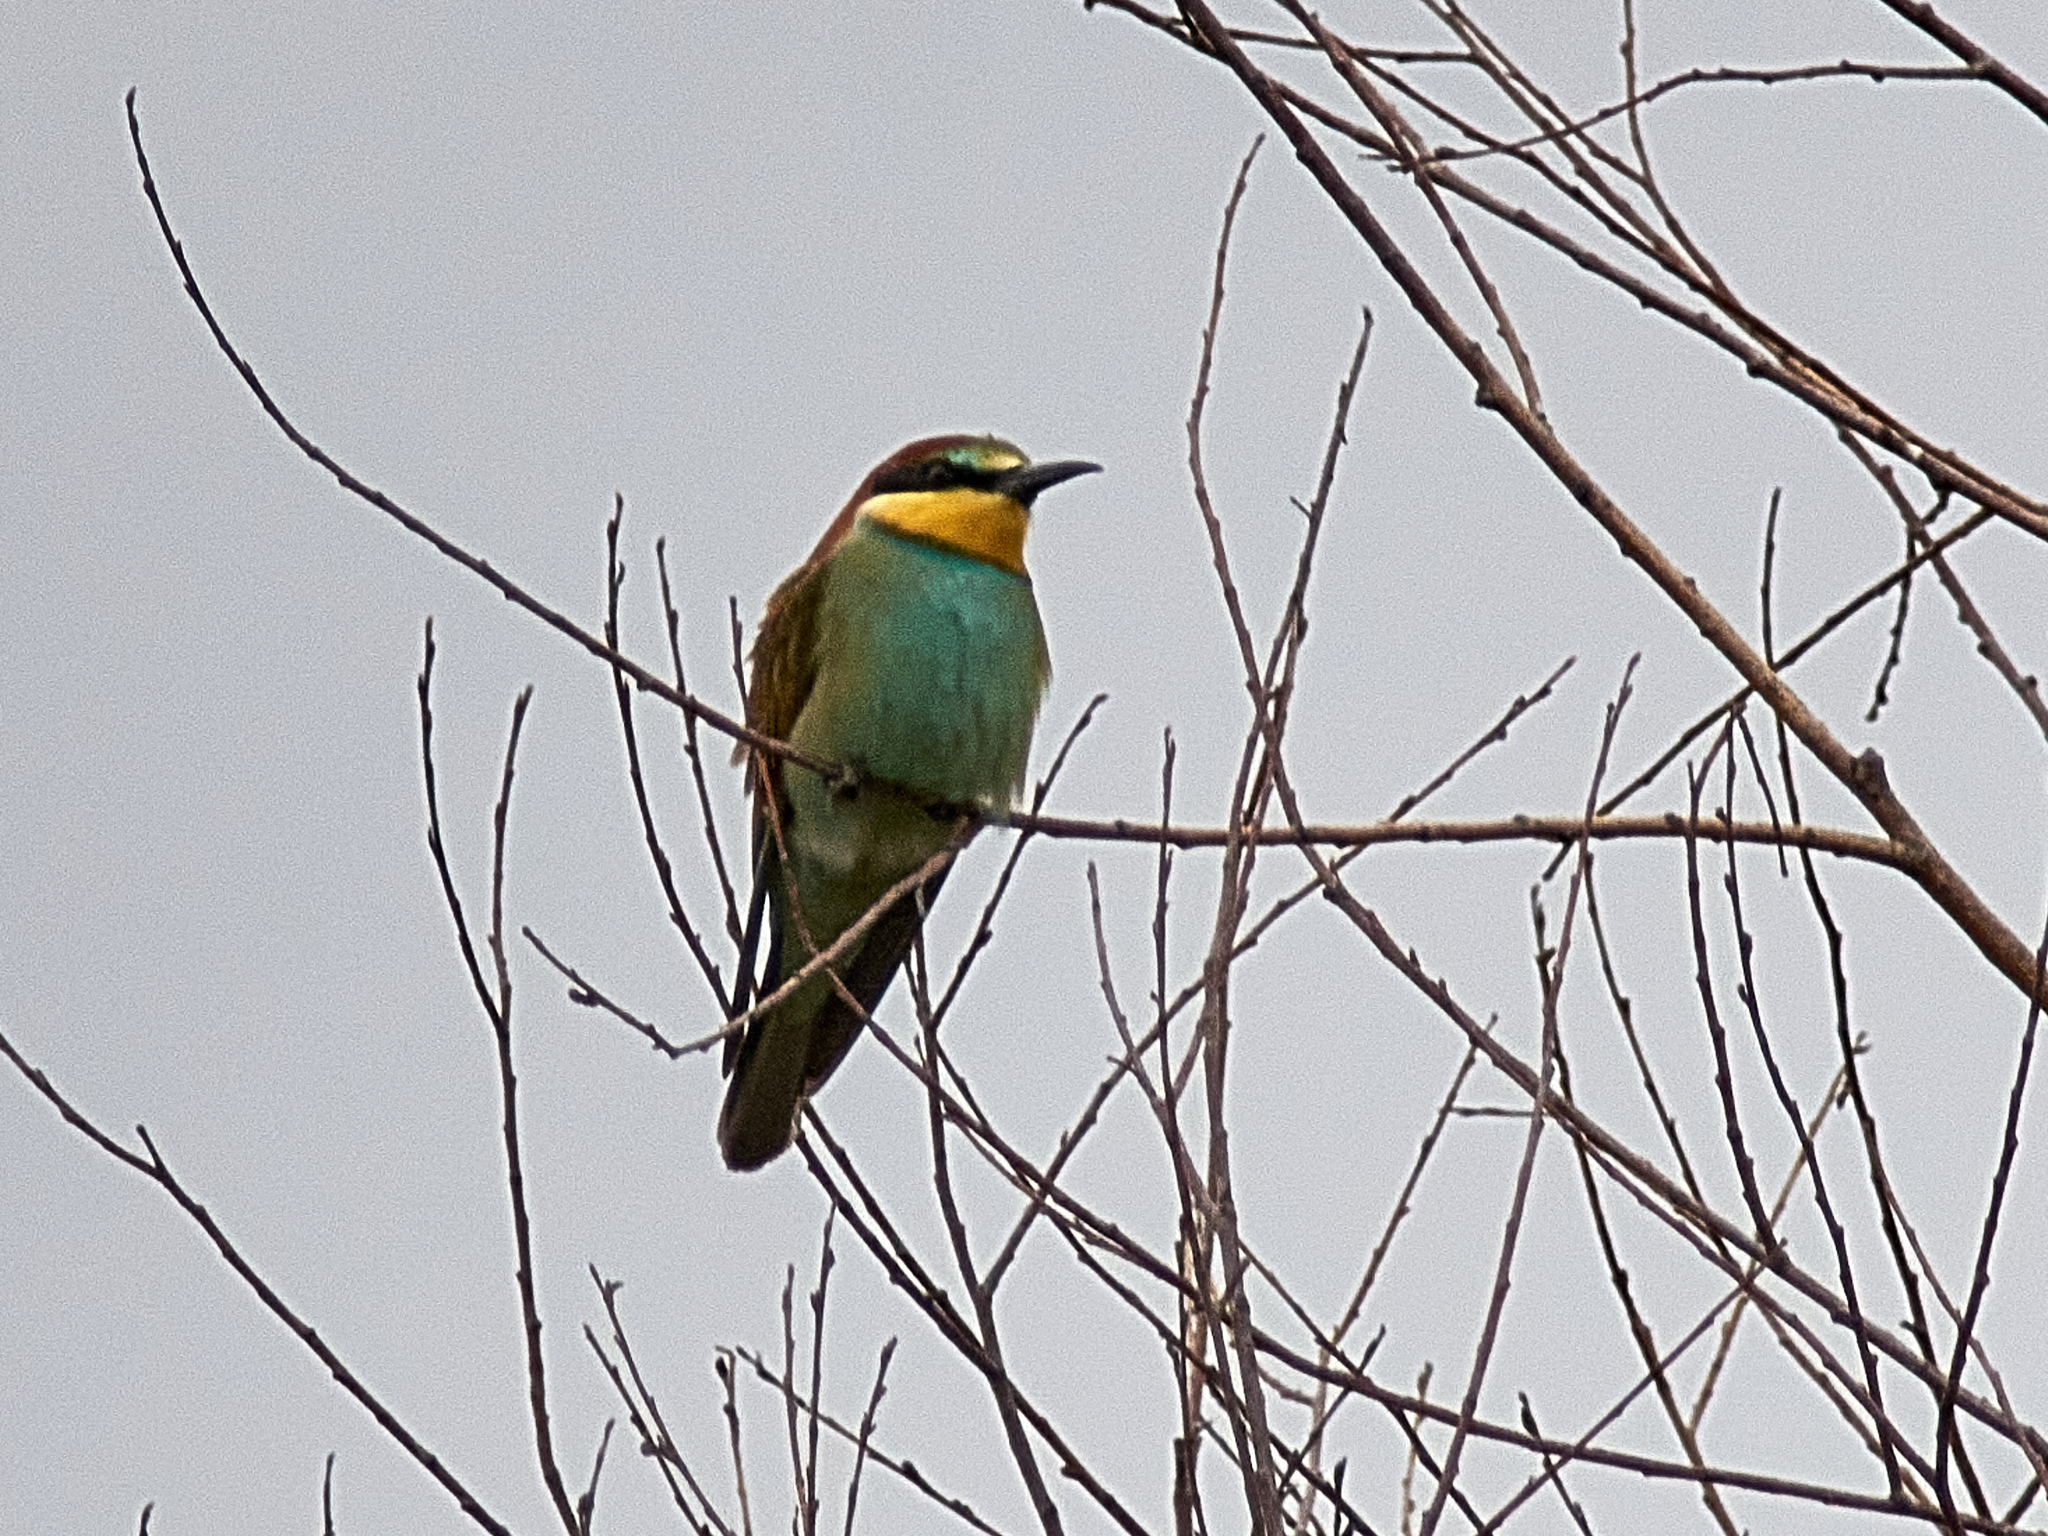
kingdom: Animalia
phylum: Chordata
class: Aves
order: Coraciiformes
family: Meropidae
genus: Merops
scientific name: Merops apiaster
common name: European bee-eater
